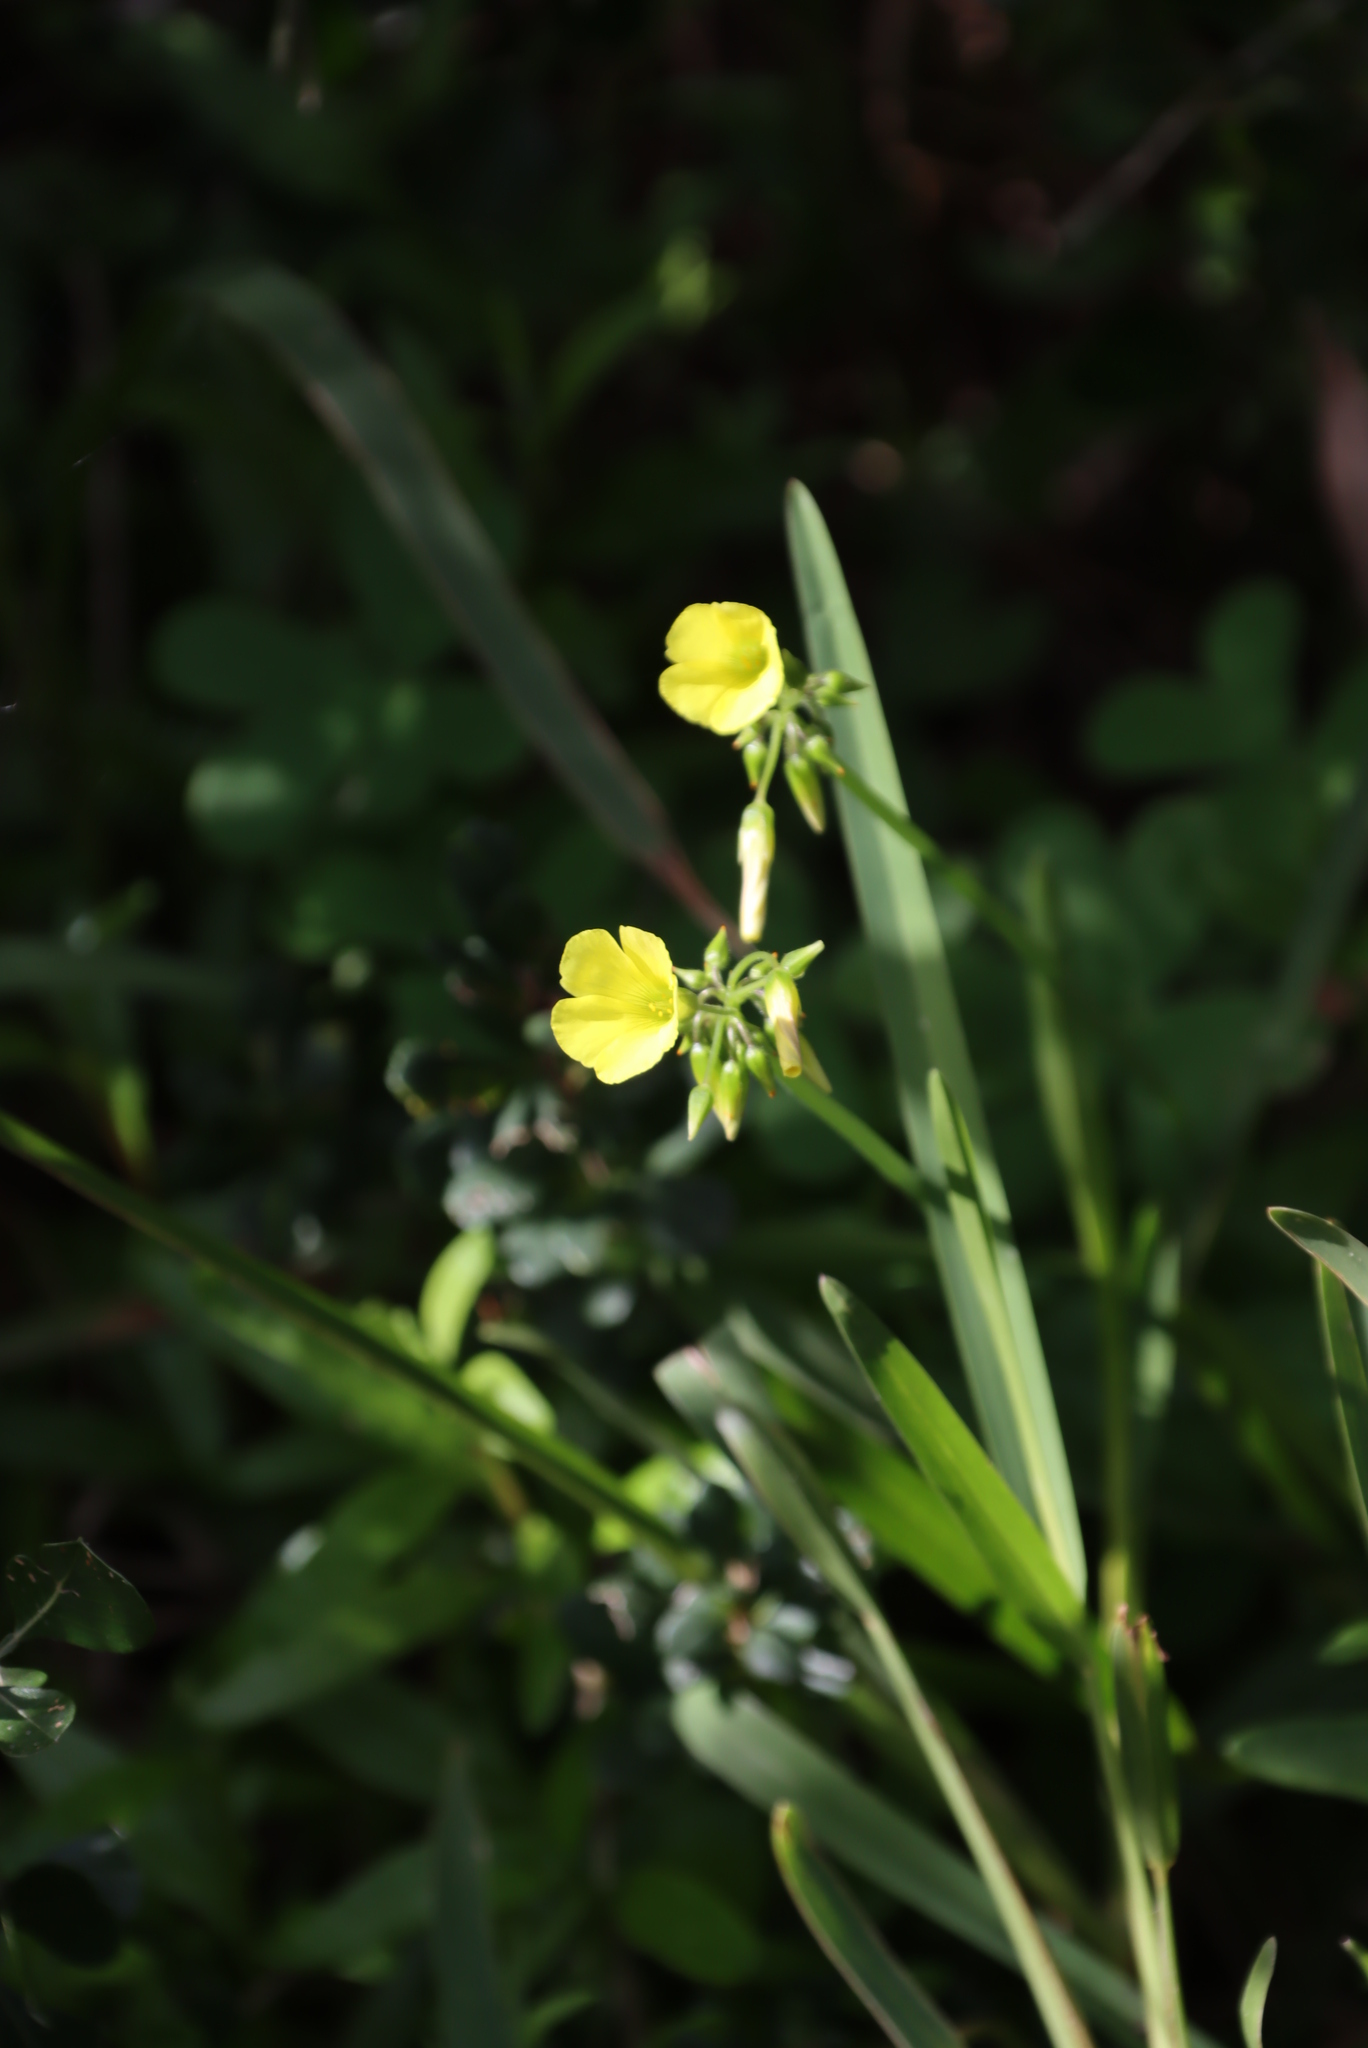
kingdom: Plantae
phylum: Tracheophyta
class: Magnoliopsida
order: Oxalidales
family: Oxalidaceae
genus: Oxalis
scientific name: Oxalis pes-caprae
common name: Bermuda-buttercup
